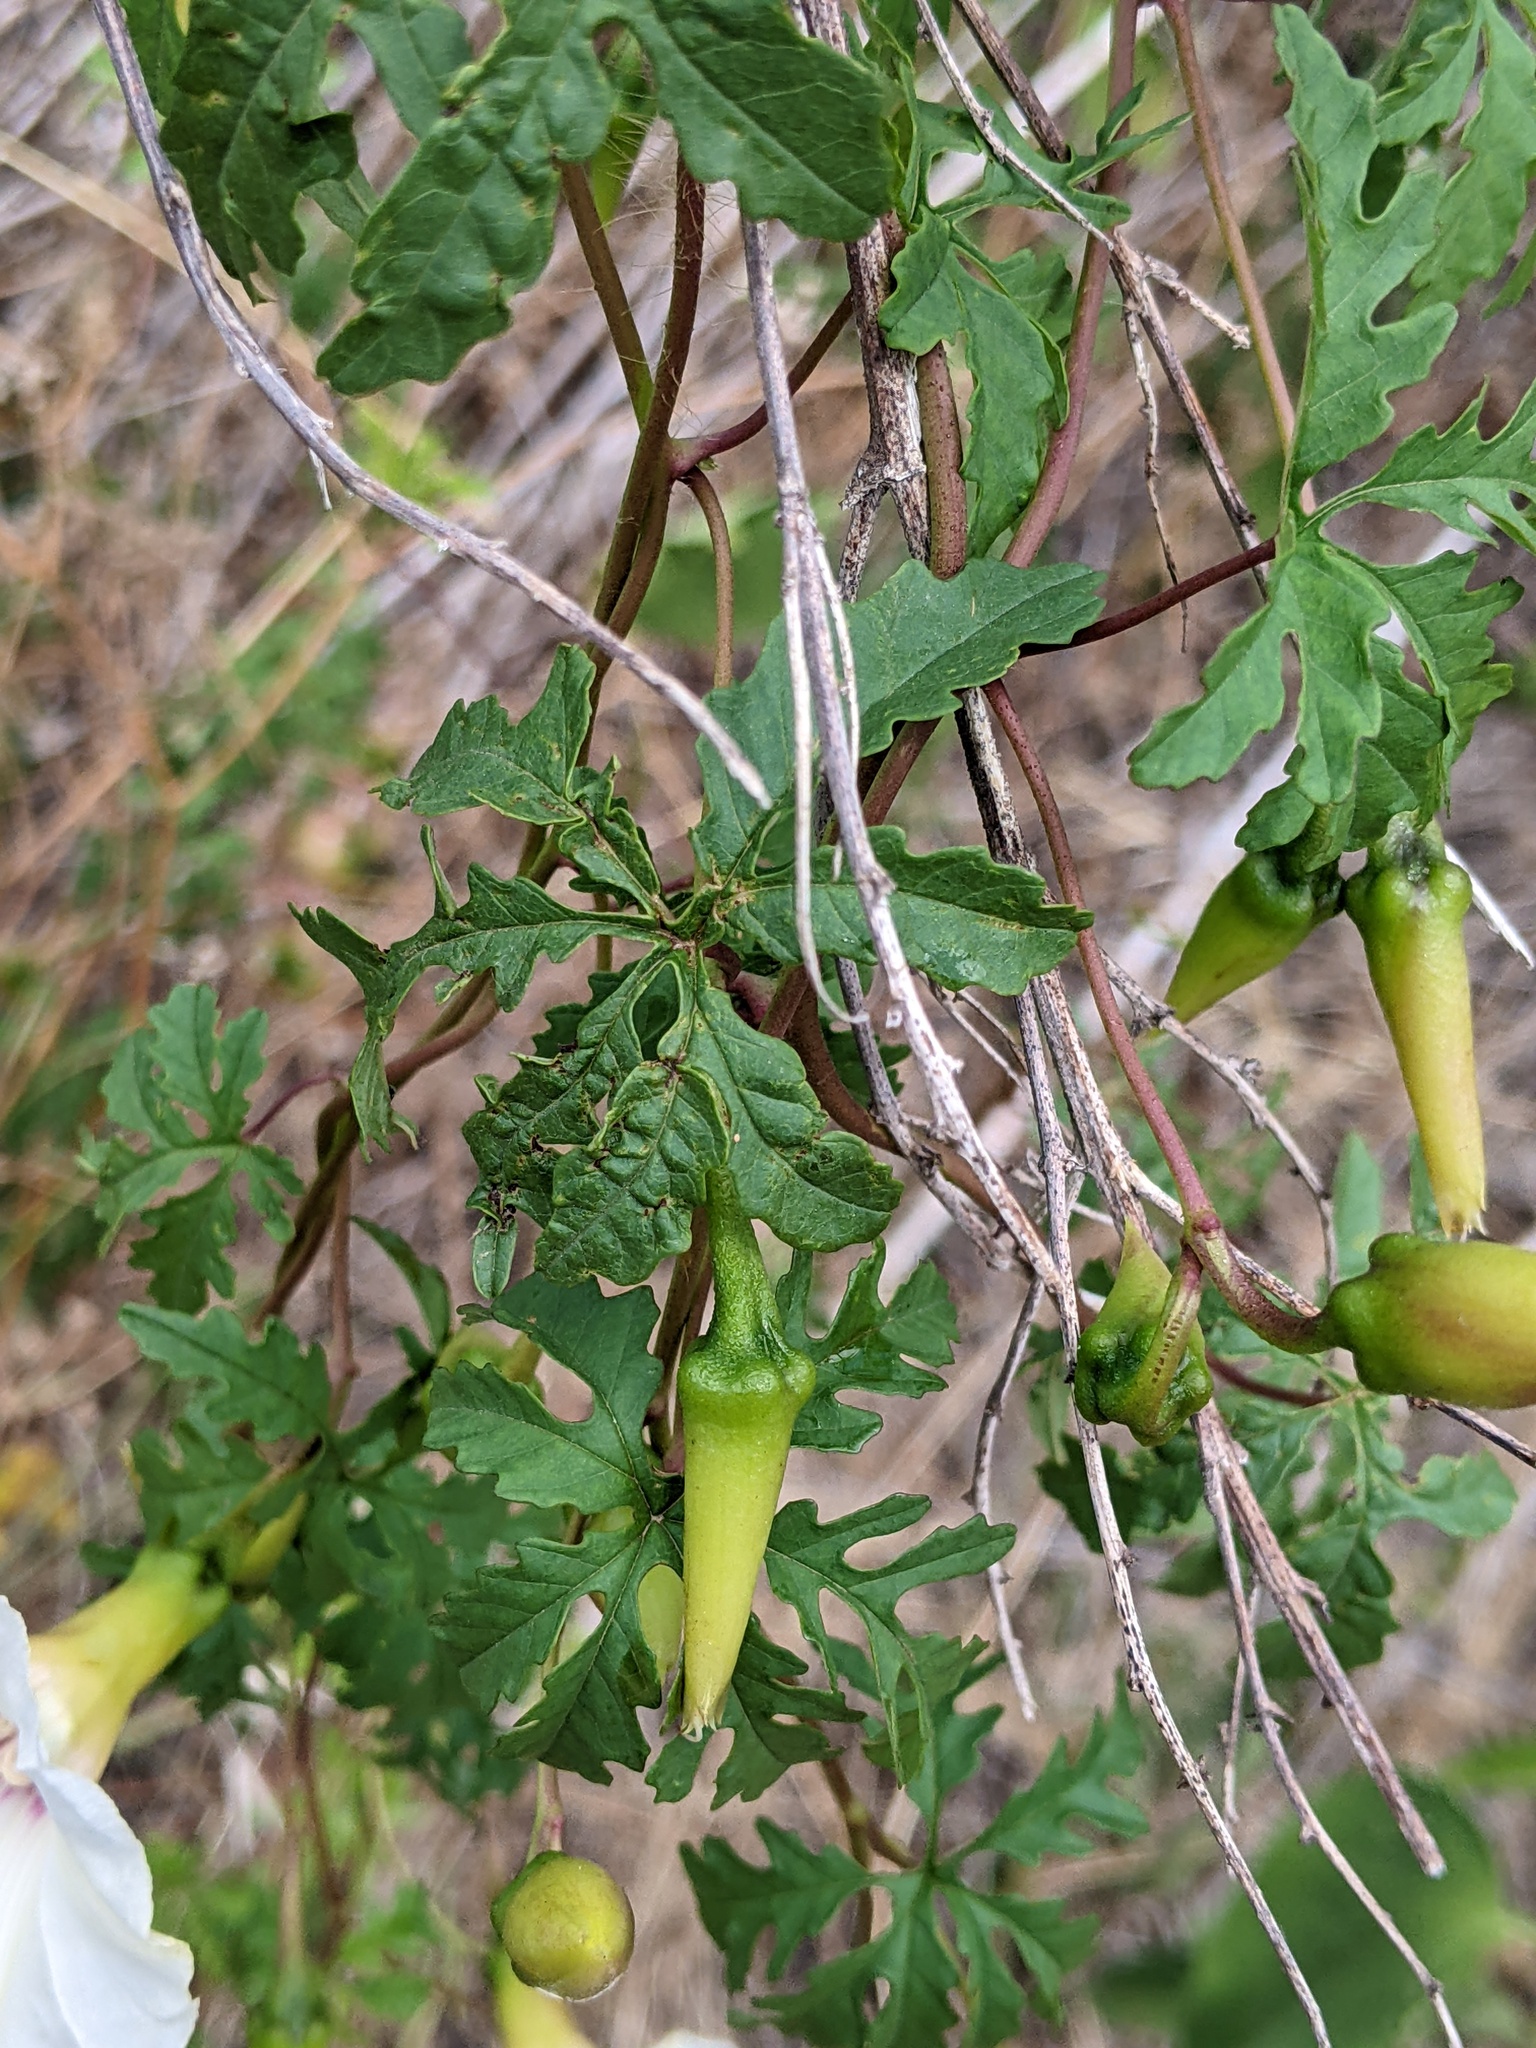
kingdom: Plantae
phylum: Tracheophyta
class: Magnoliopsida
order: Solanales
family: Convolvulaceae
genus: Distimake
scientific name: Distimake dissectus
